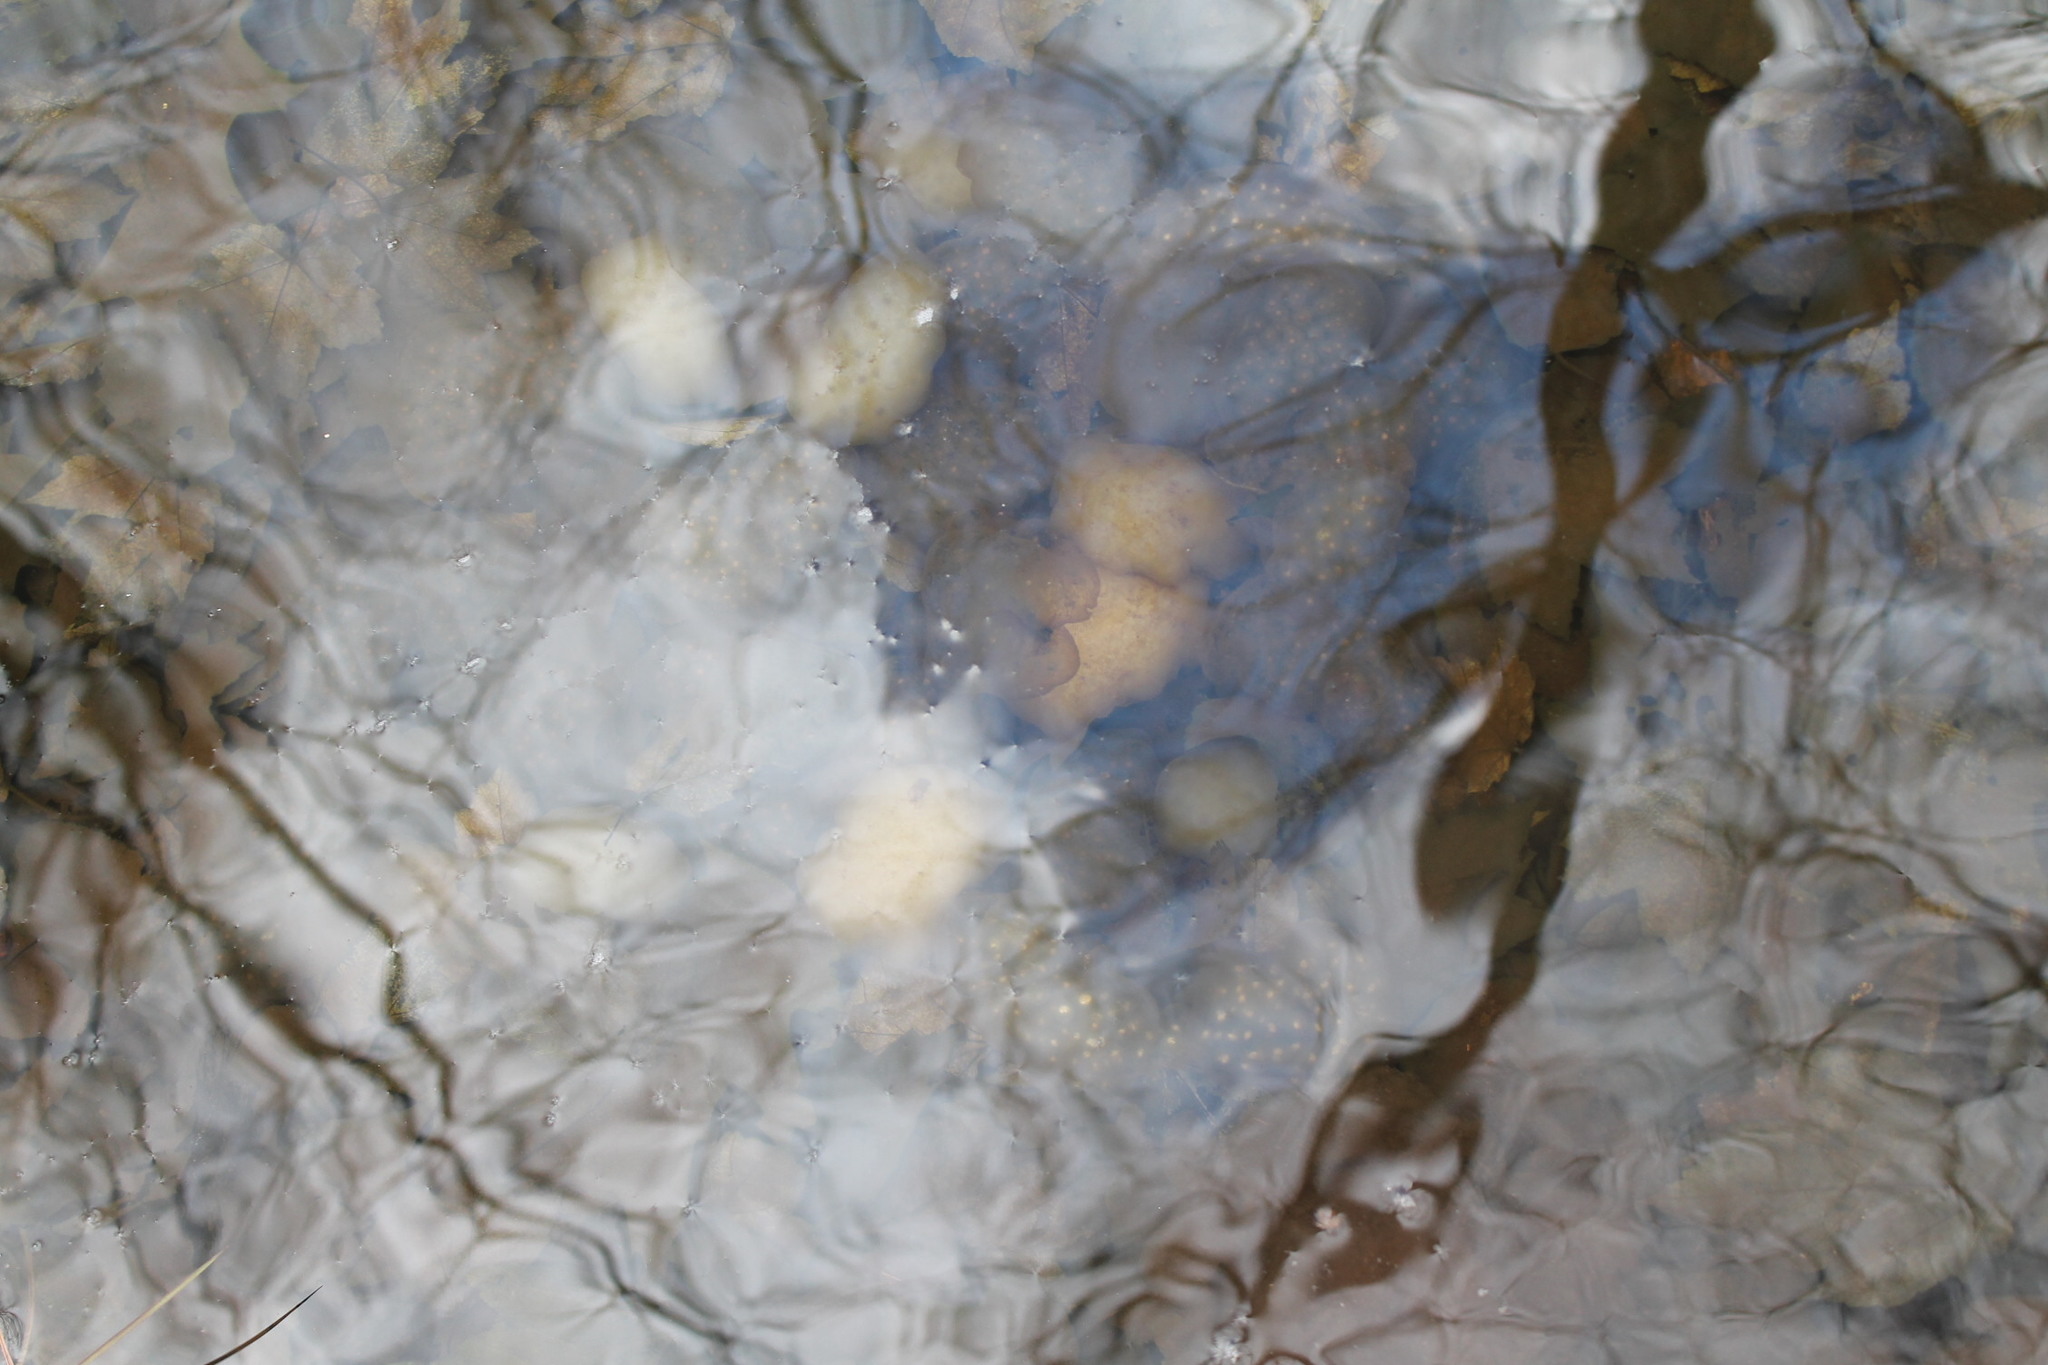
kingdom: Animalia
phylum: Chordata
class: Amphibia
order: Caudata
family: Ambystomatidae
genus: Ambystoma
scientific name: Ambystoma maculatum
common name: Spotted salamander
